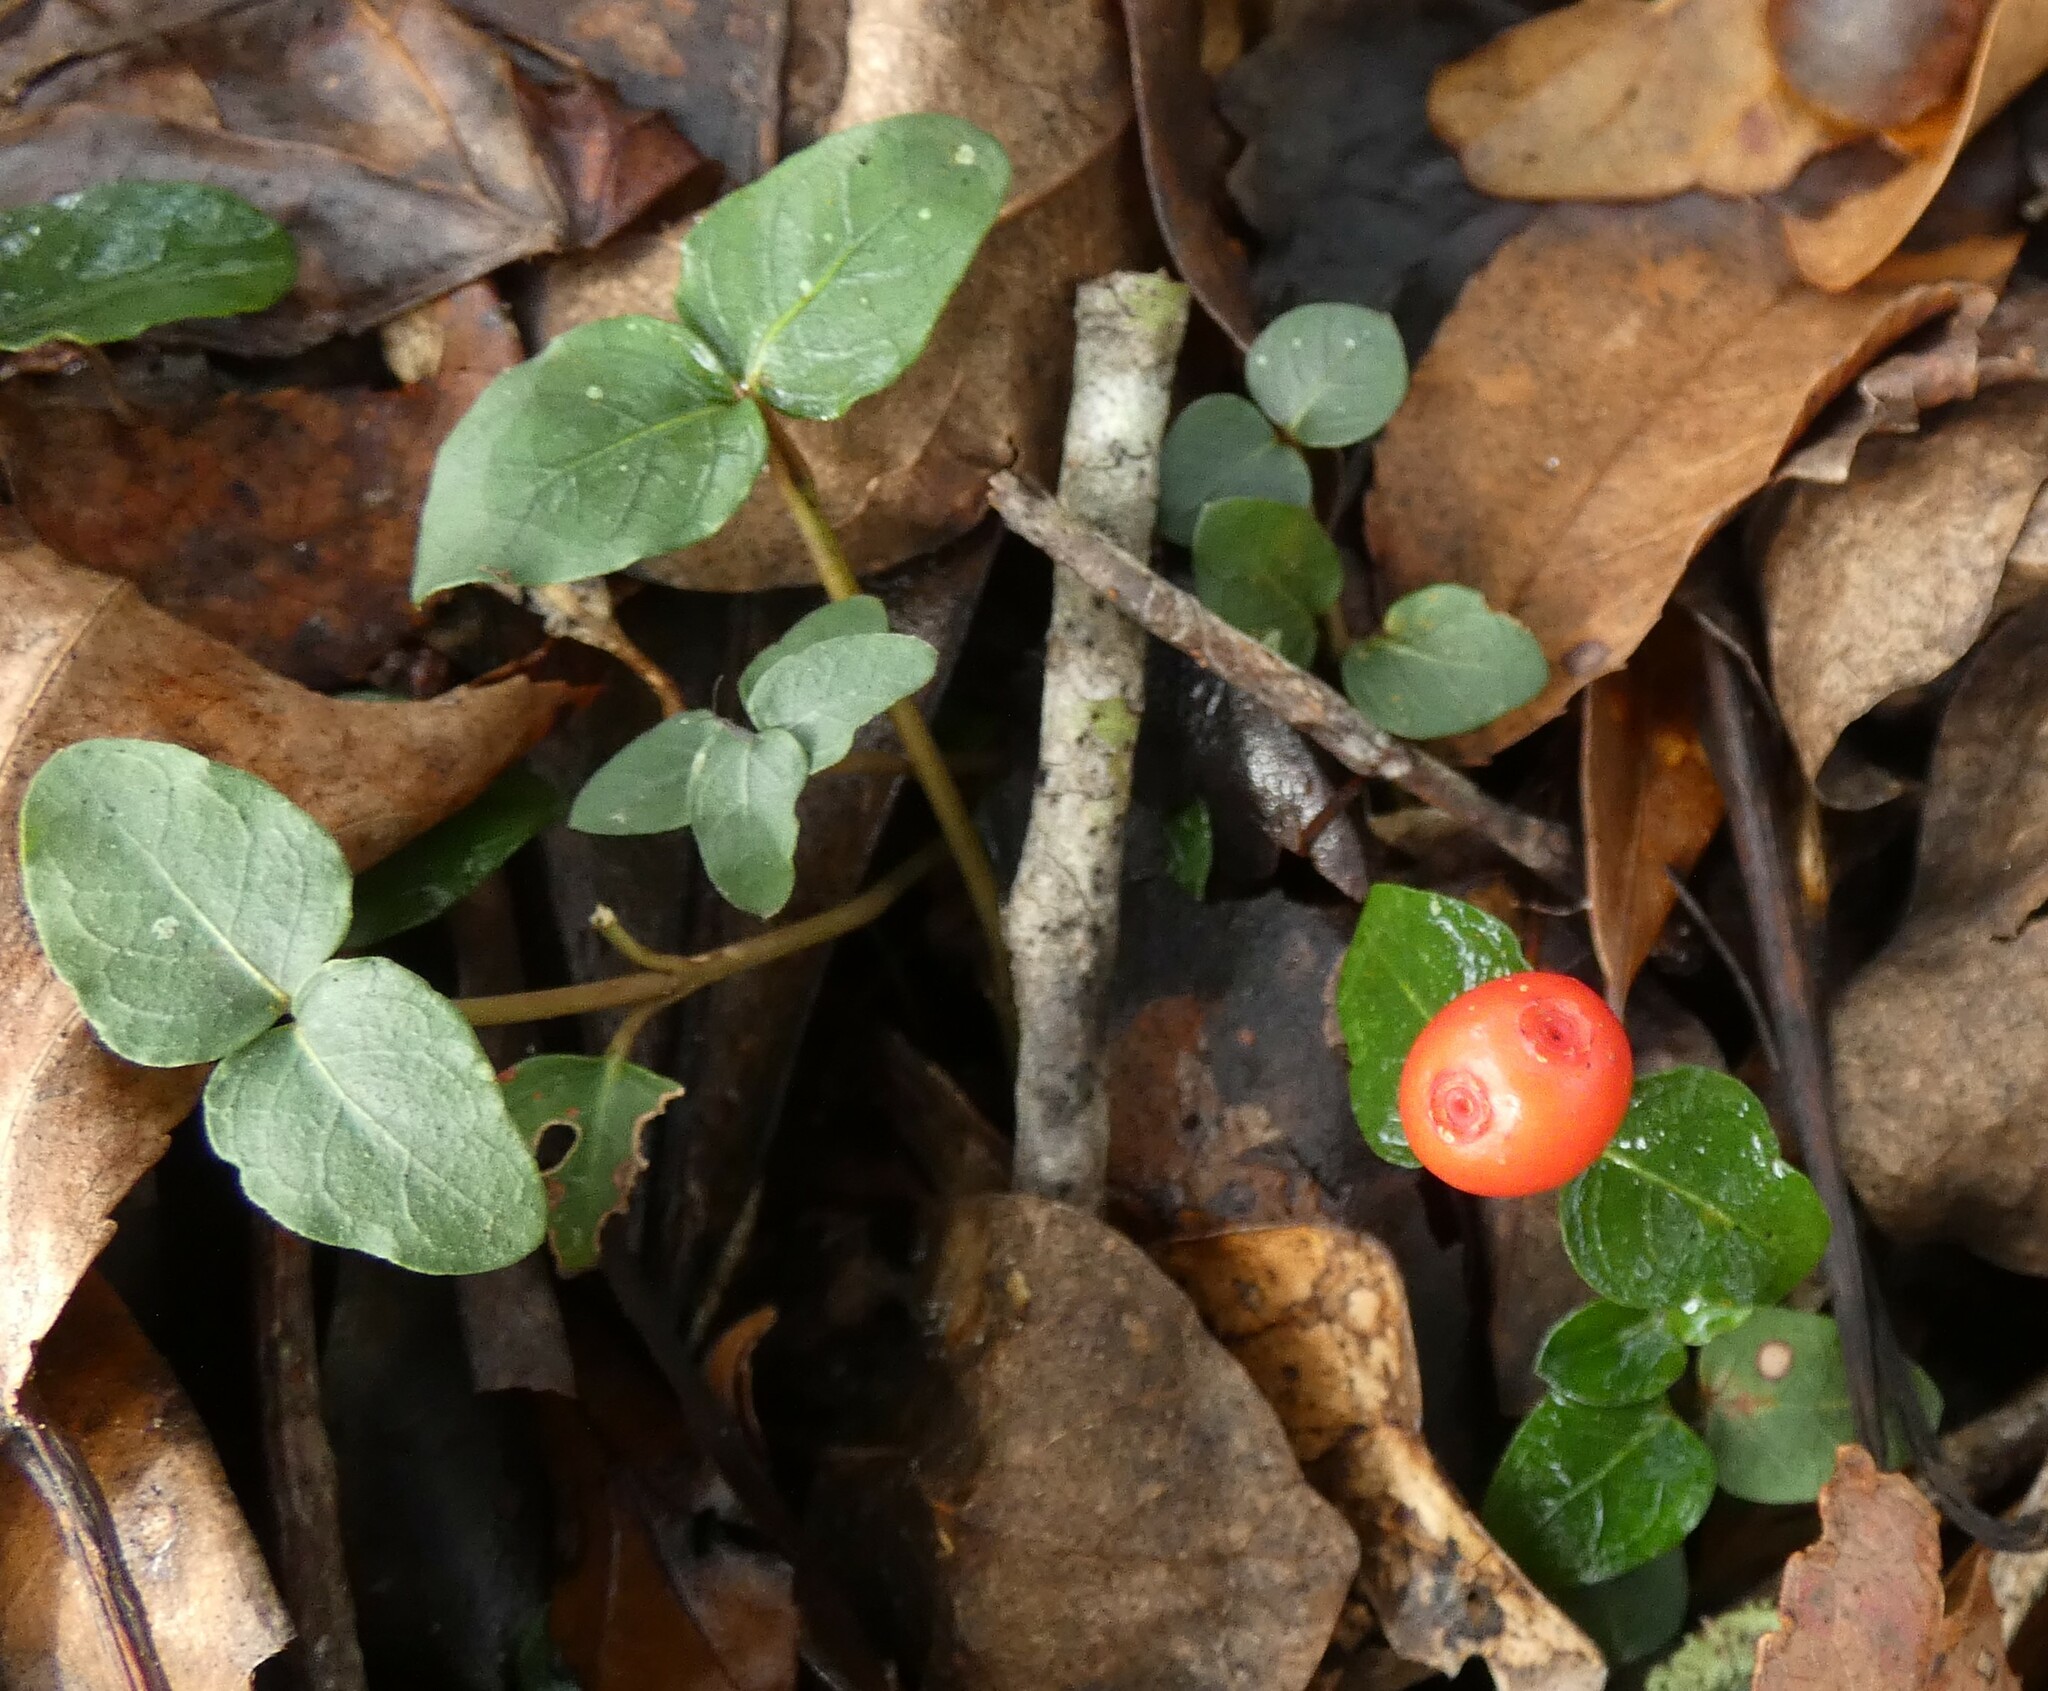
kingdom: Plantae
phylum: Tracheophyta
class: Magnoliopsida
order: Gentianales
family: Rubiaceae
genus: Mitchella
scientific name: Mitchella repens
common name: Partridge-berry
